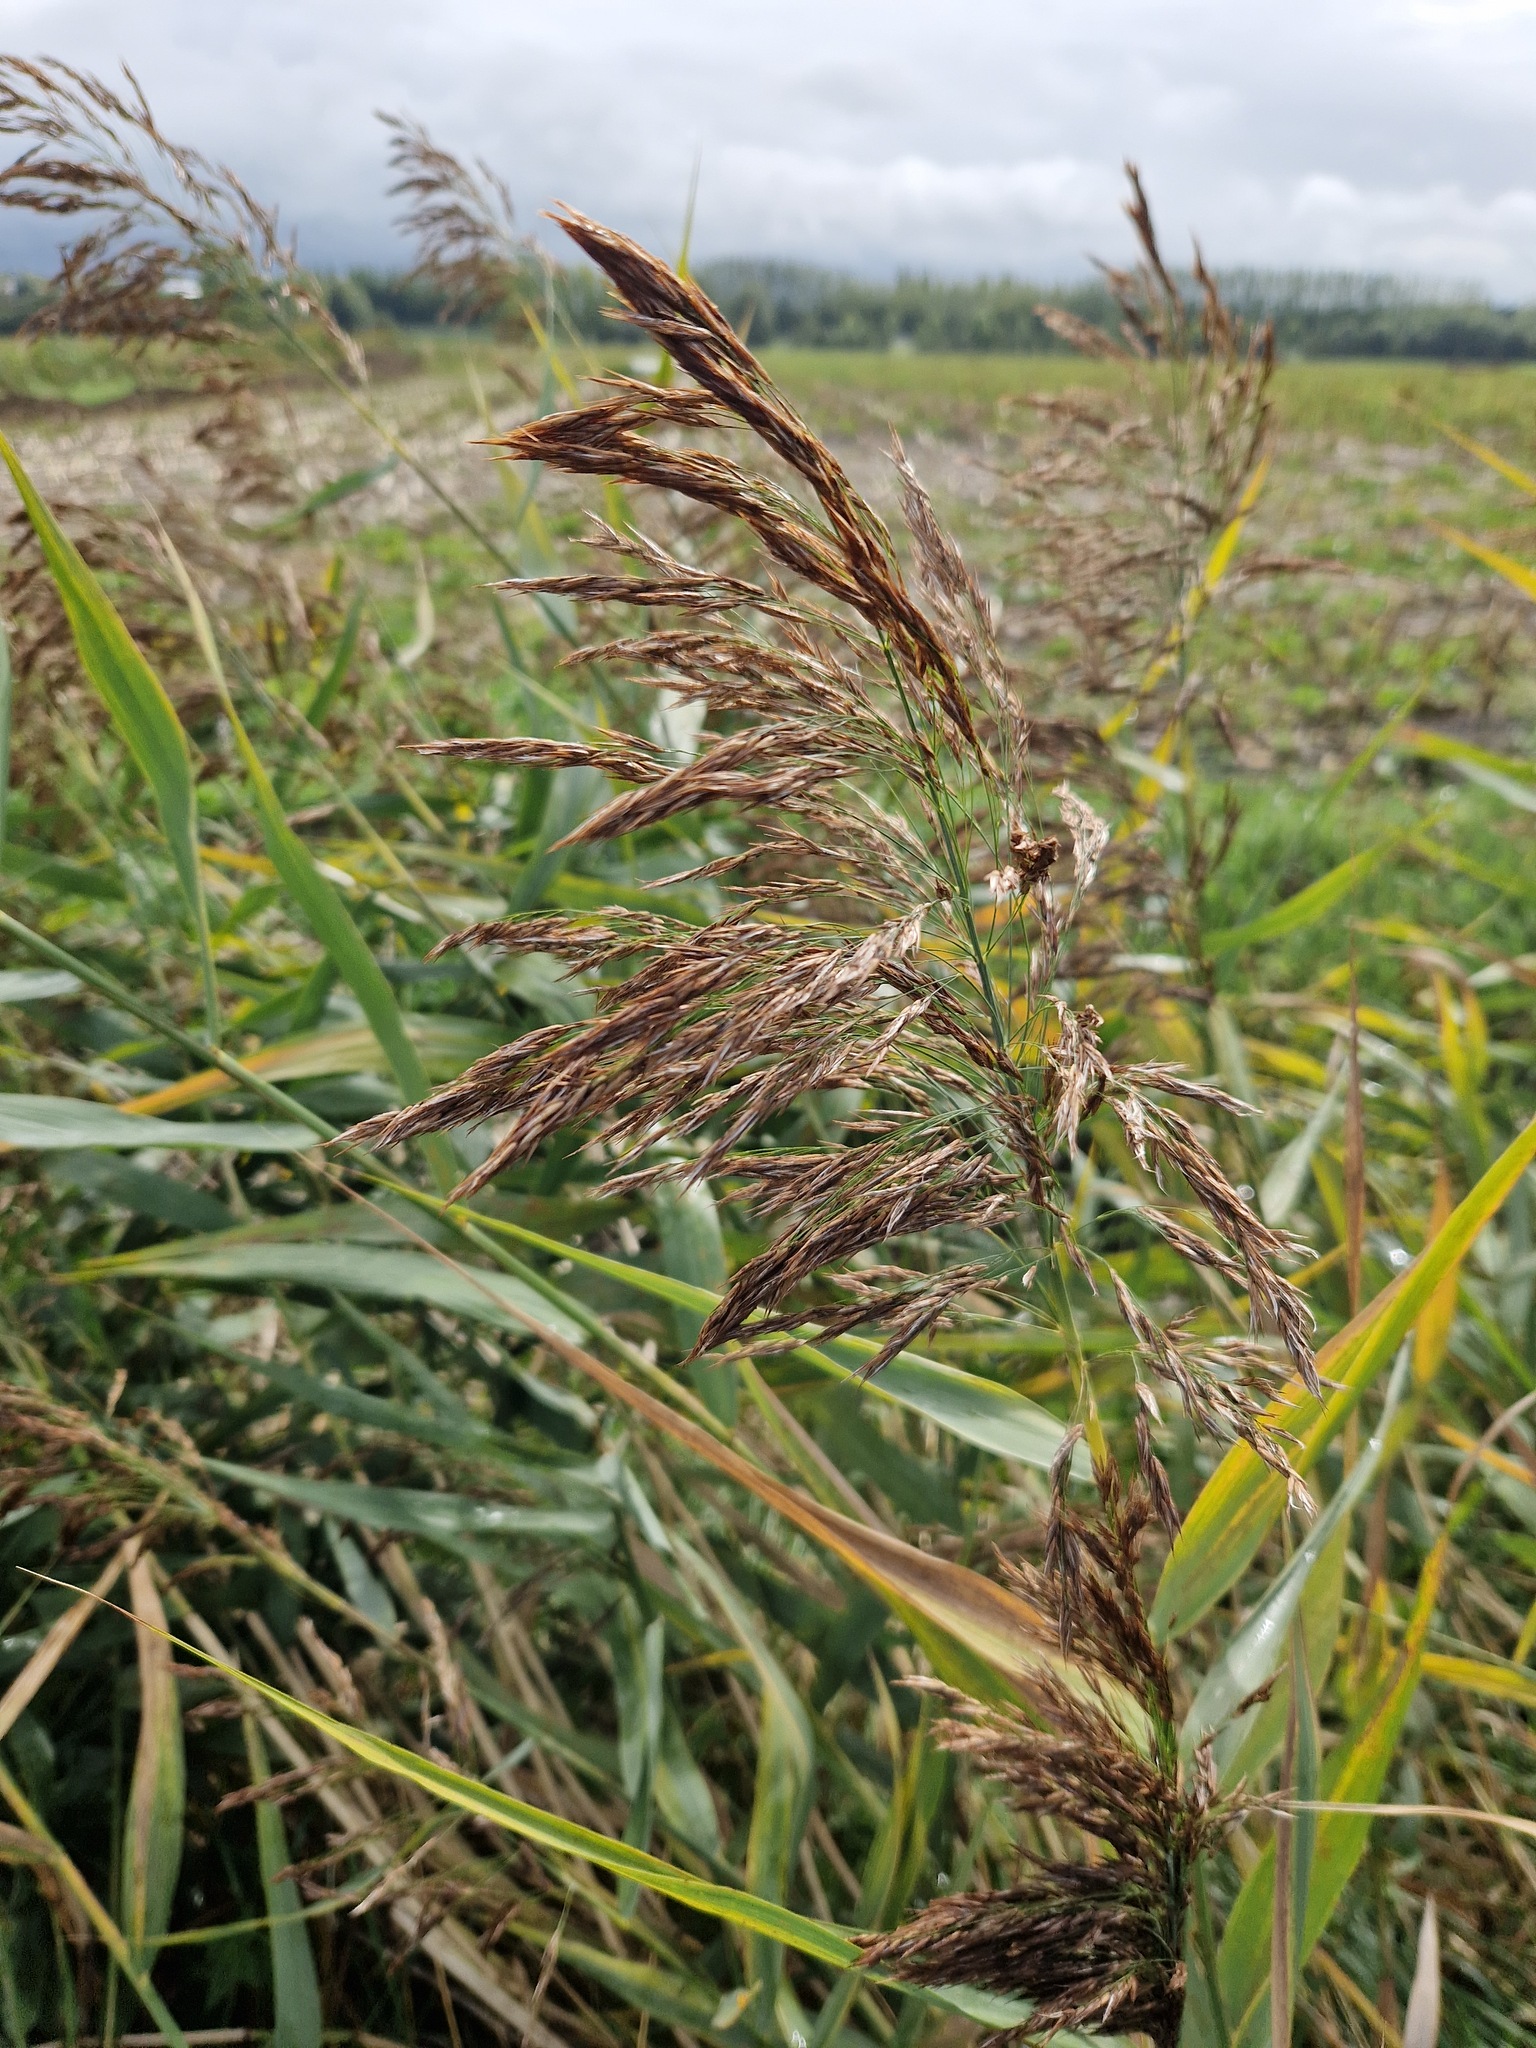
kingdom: Plantae
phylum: Tracheophyta
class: Liliopsida
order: Poales
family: Poaceae
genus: Phragmites
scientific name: Phragmites australis
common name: Common reed
